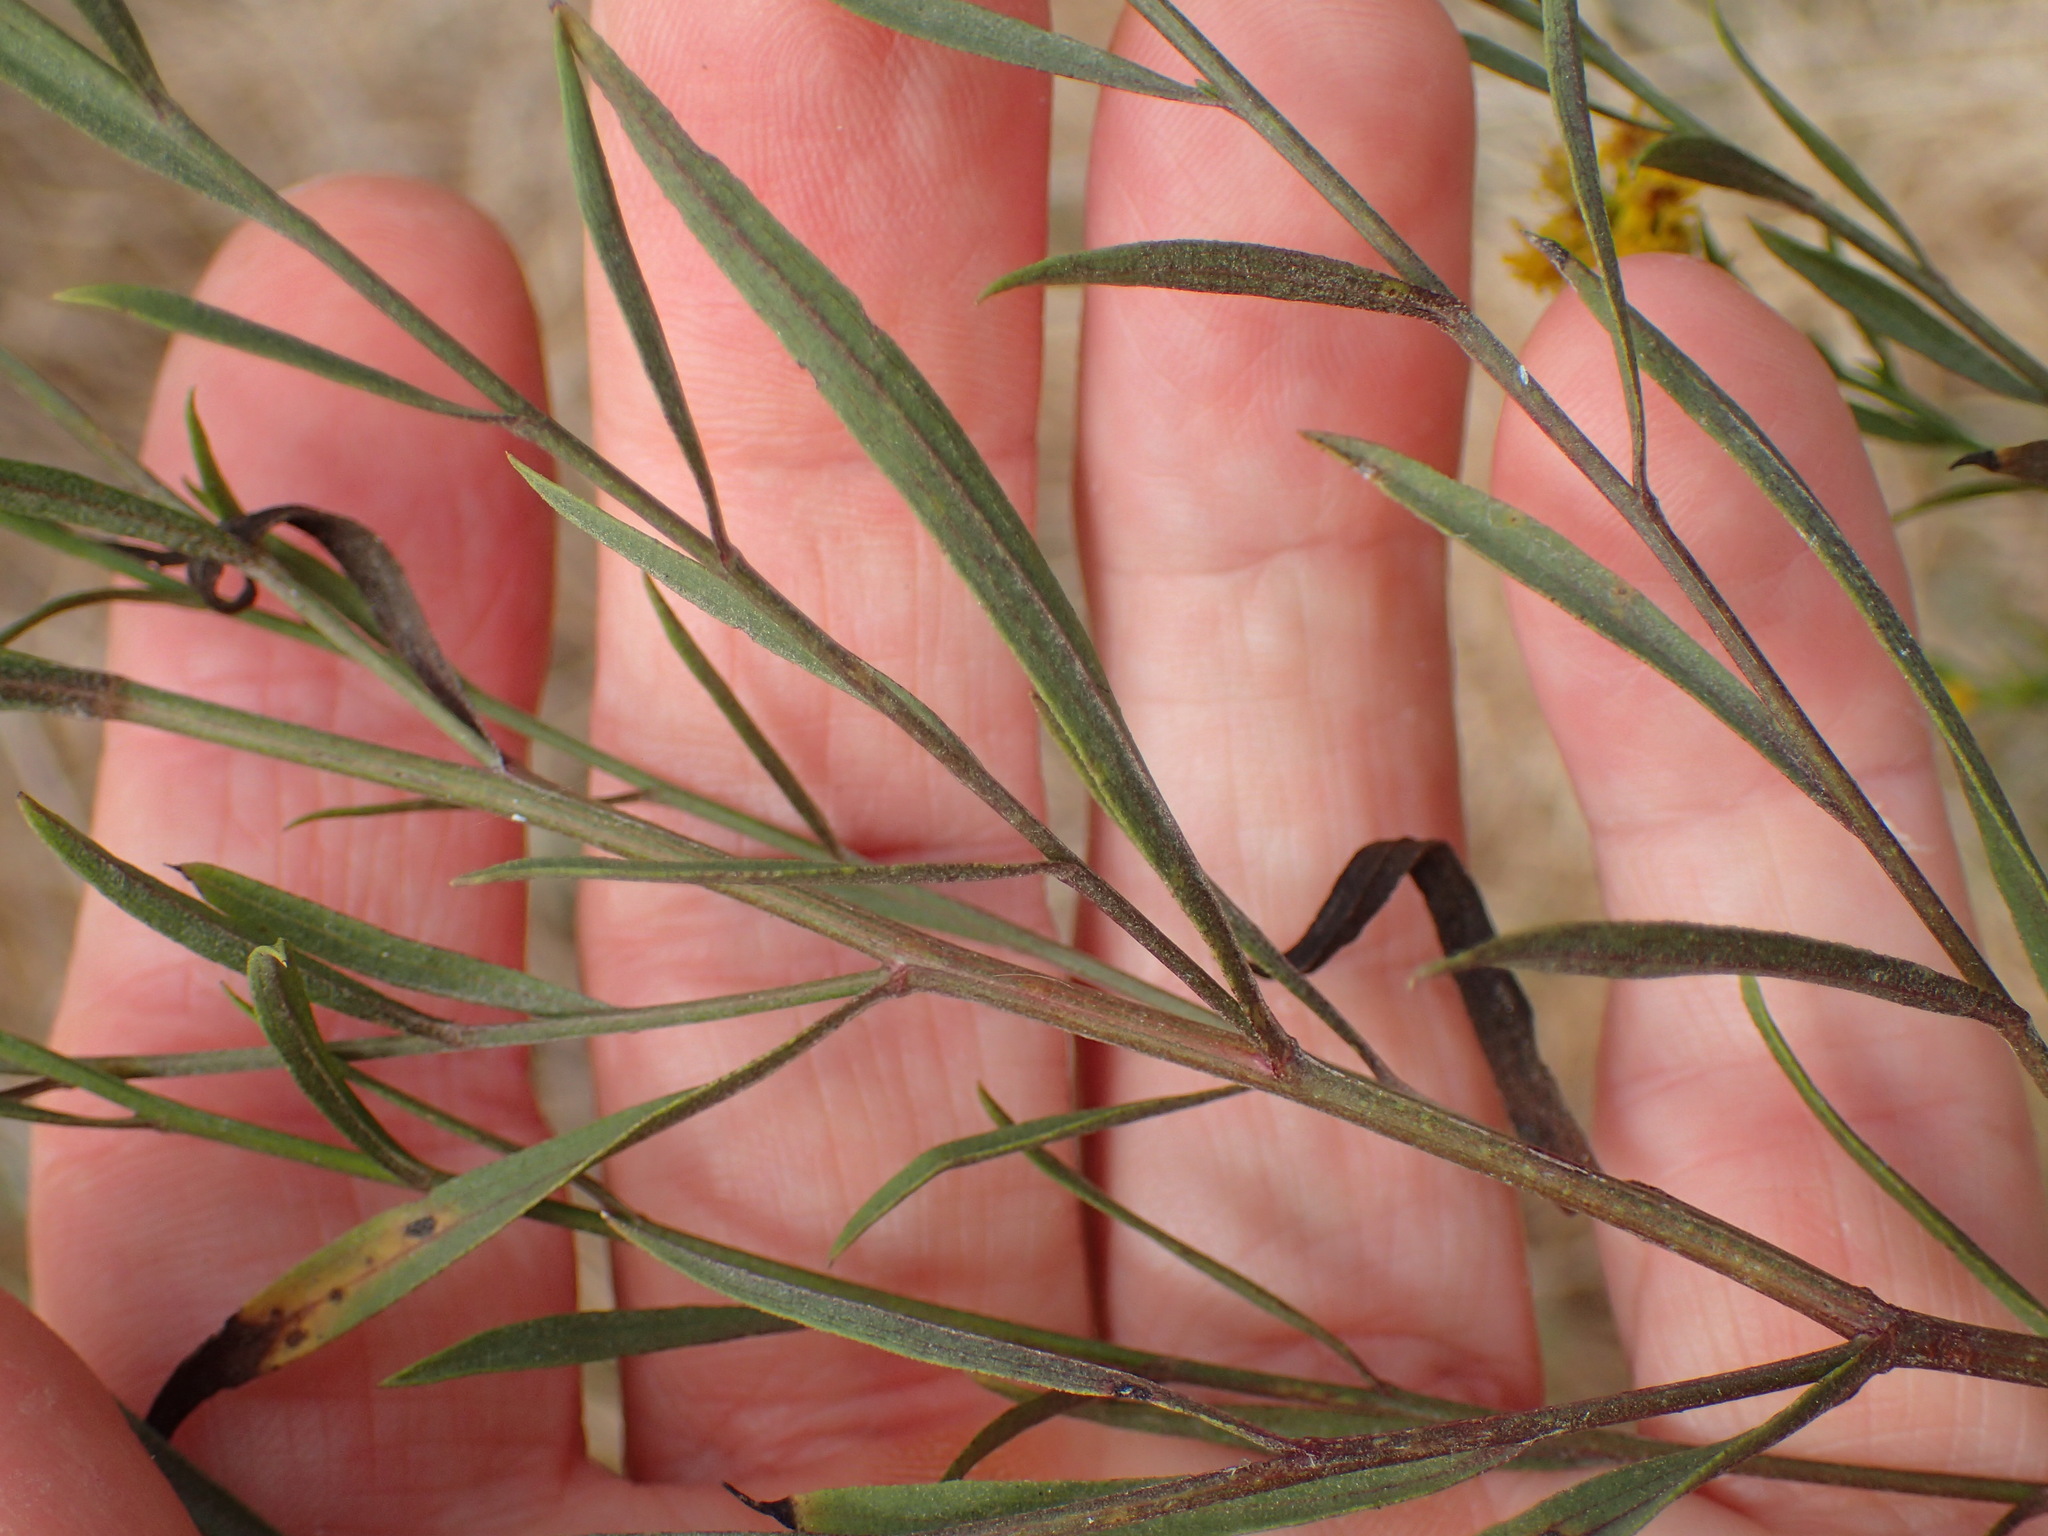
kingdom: Plantae
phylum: Tracheophyta
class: Magnoliopsida
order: Asterales
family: Asteraceae
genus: Euthamia
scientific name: Euthamia occidentalis
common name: Western goldentop
